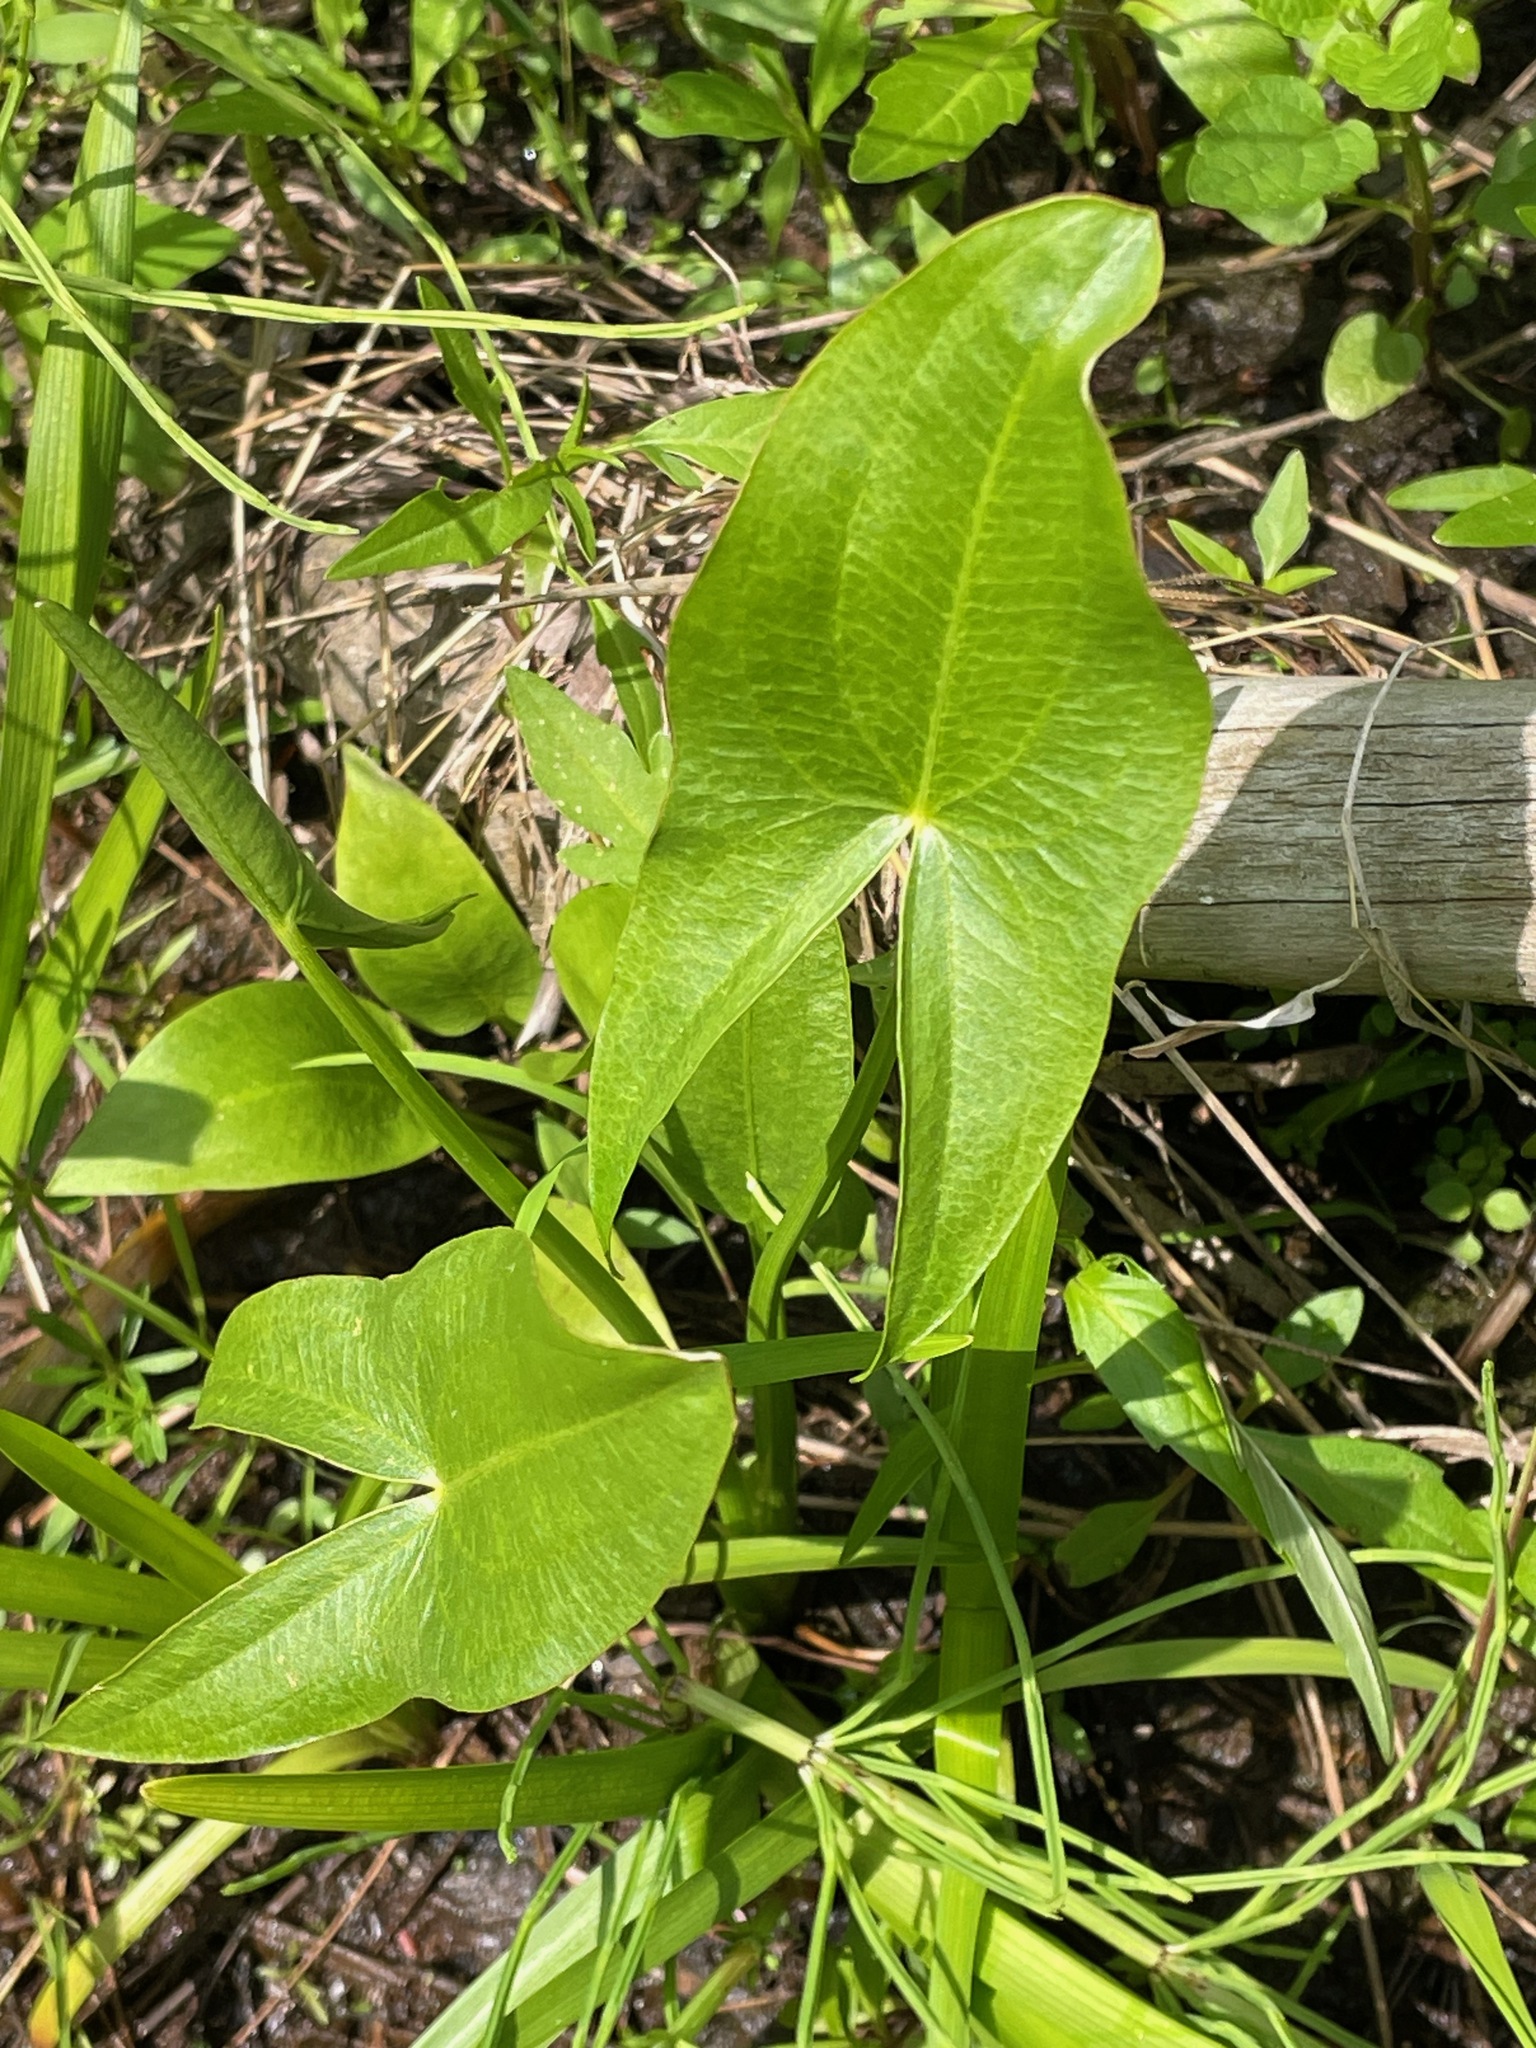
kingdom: Plantae
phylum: Tracheophyta
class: Liliopsida
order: Alismatales
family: Alismataceae
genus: Sagittaria
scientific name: Sagittaria latifolia
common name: Duck-potato
